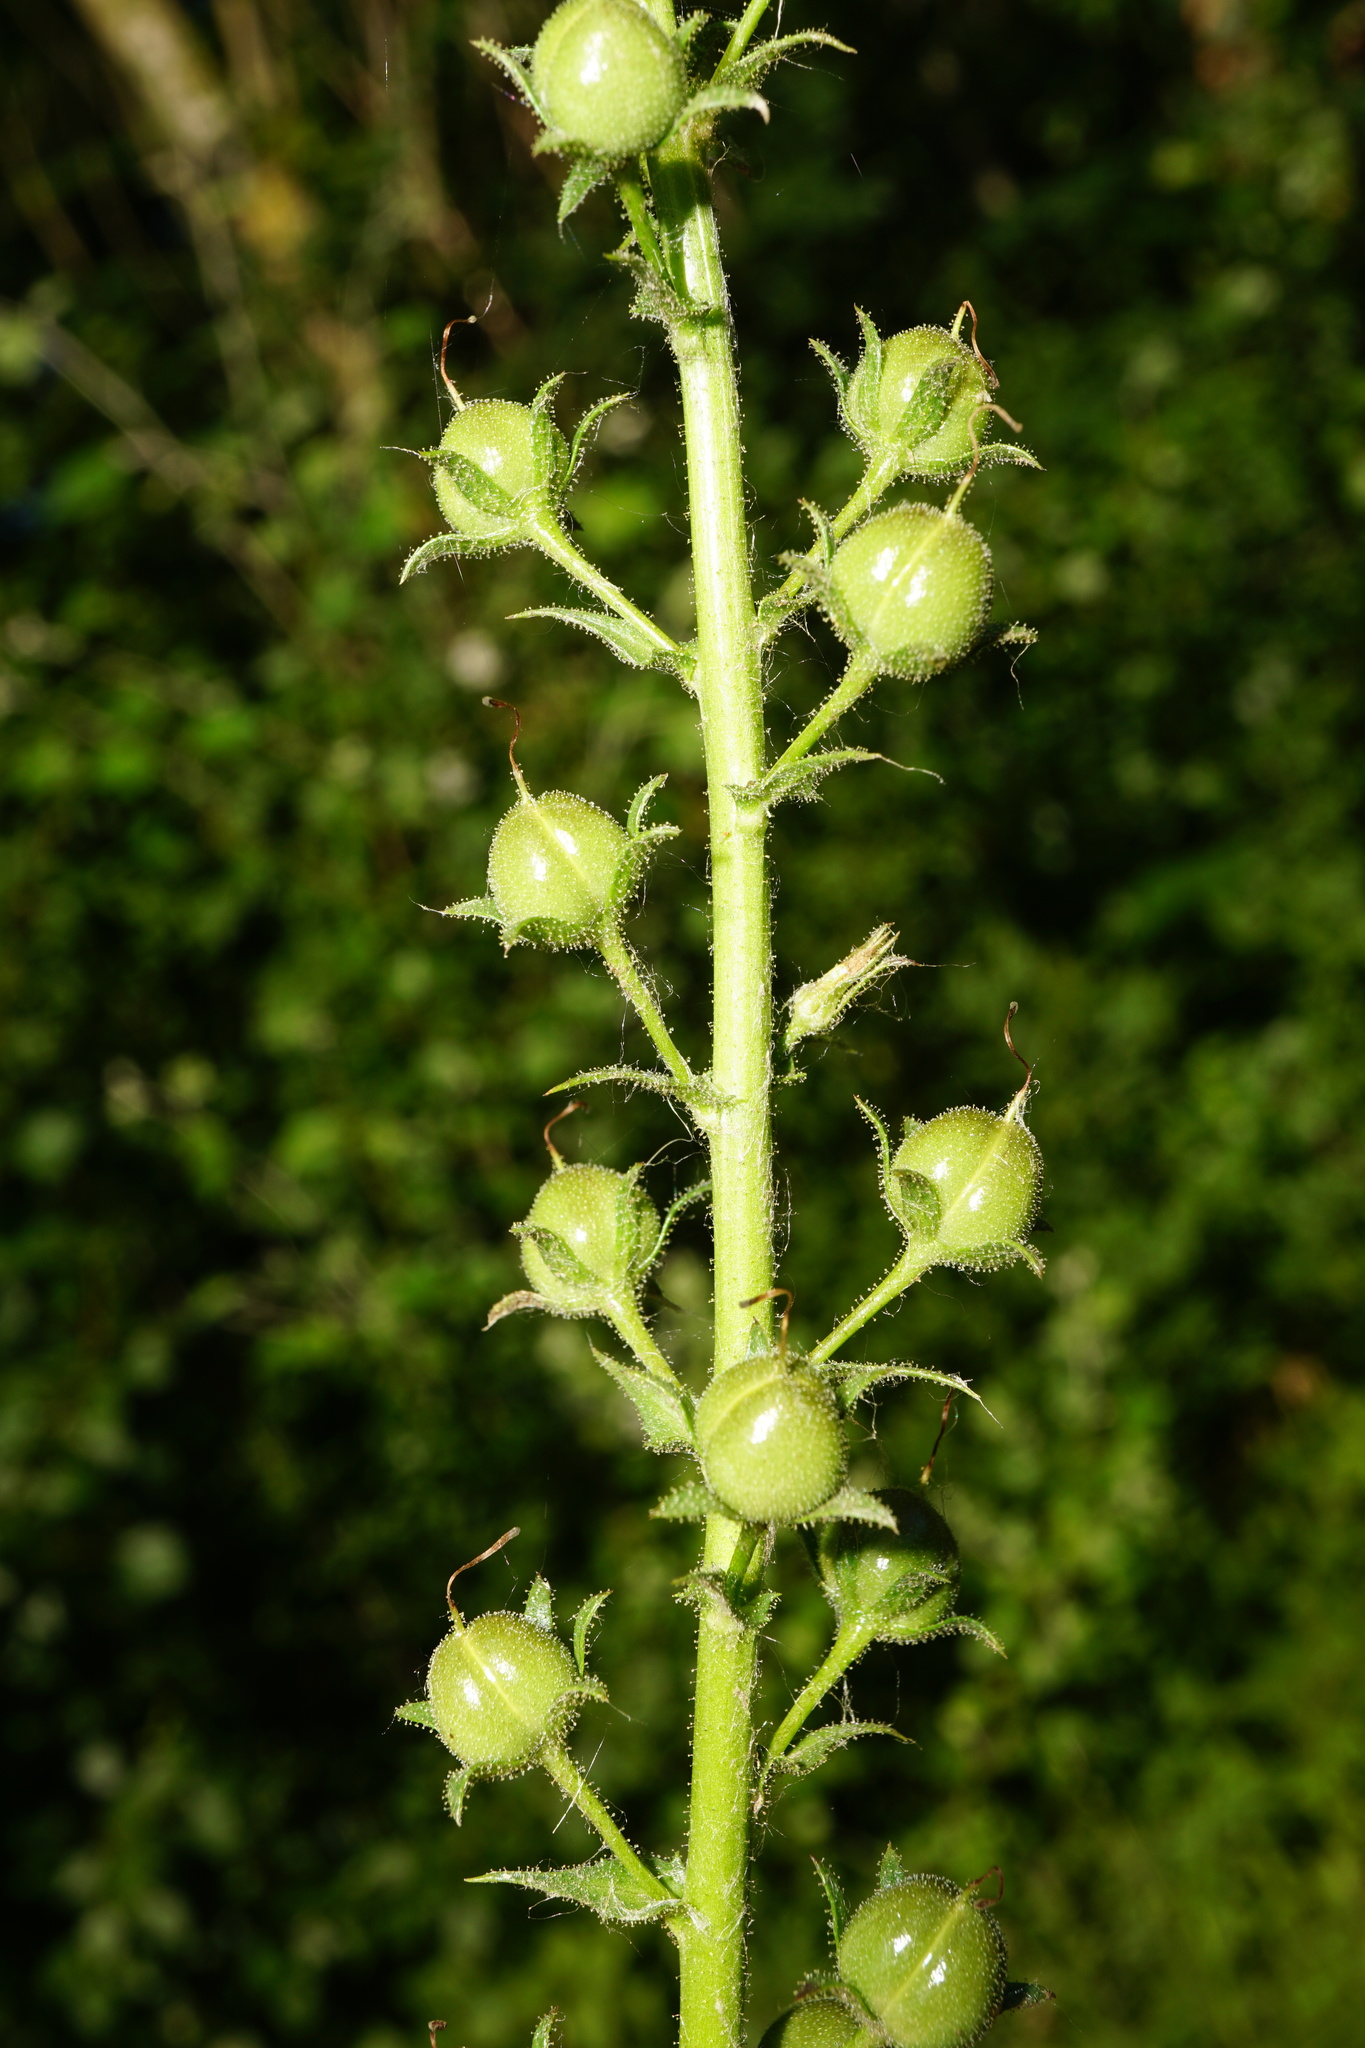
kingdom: Plantae
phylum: Tracheophyta
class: Magnoliopsida
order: Lamiales
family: Scrophulariaceae
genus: Verbascum
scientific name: Verbascum blattaria
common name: Moth mullein
